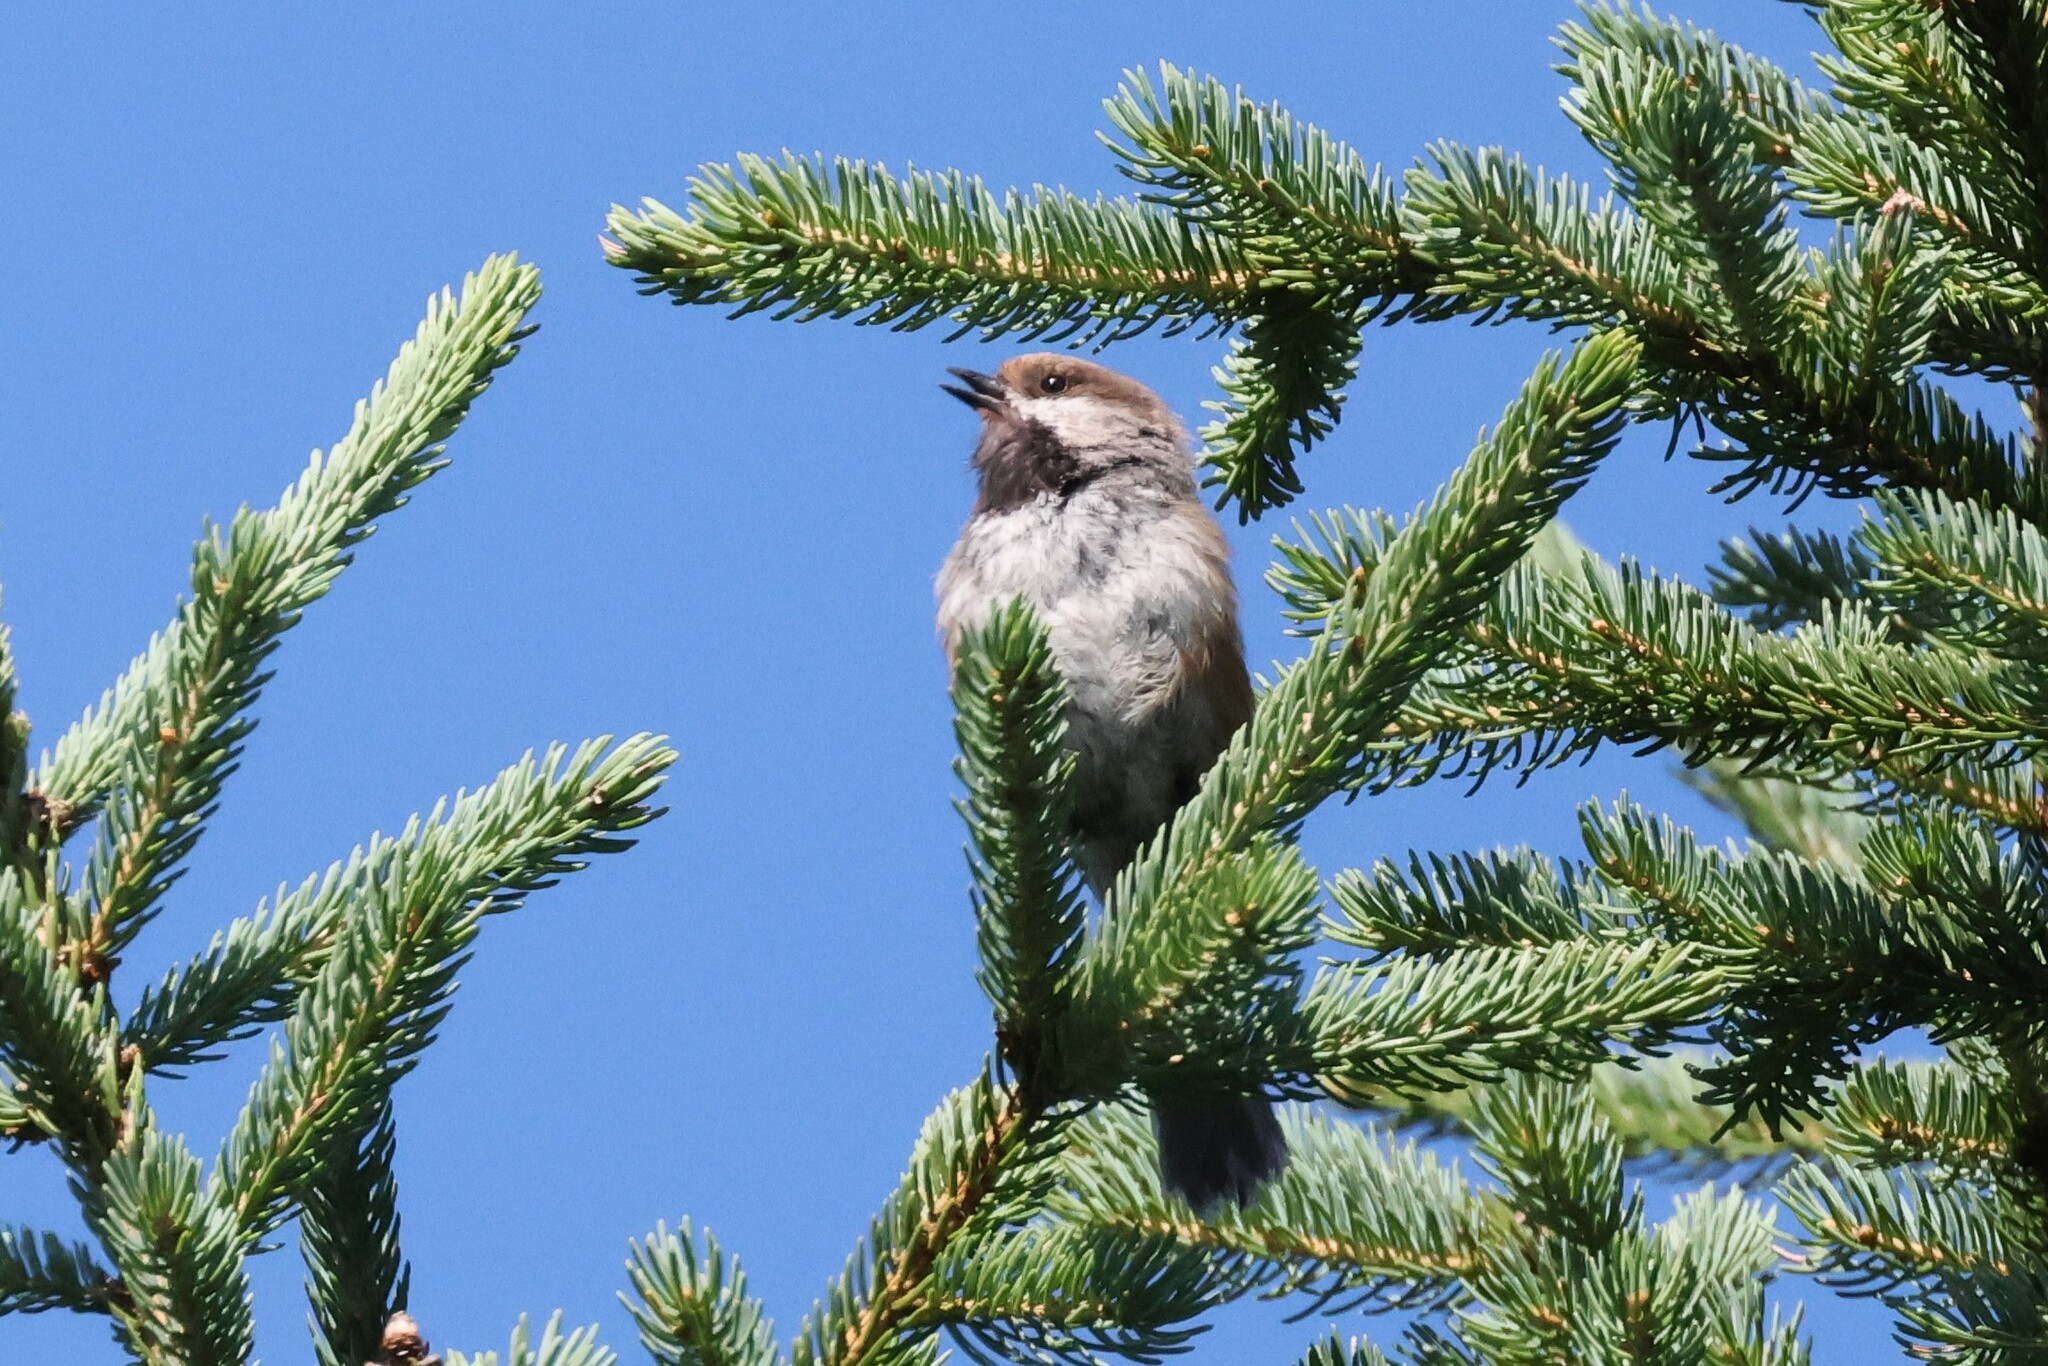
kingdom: Animalia
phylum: Chordata
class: Aves
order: Passeriformes
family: Paridae
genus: Poecile
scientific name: Poecile hudsonicus
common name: Boreal chickadee
